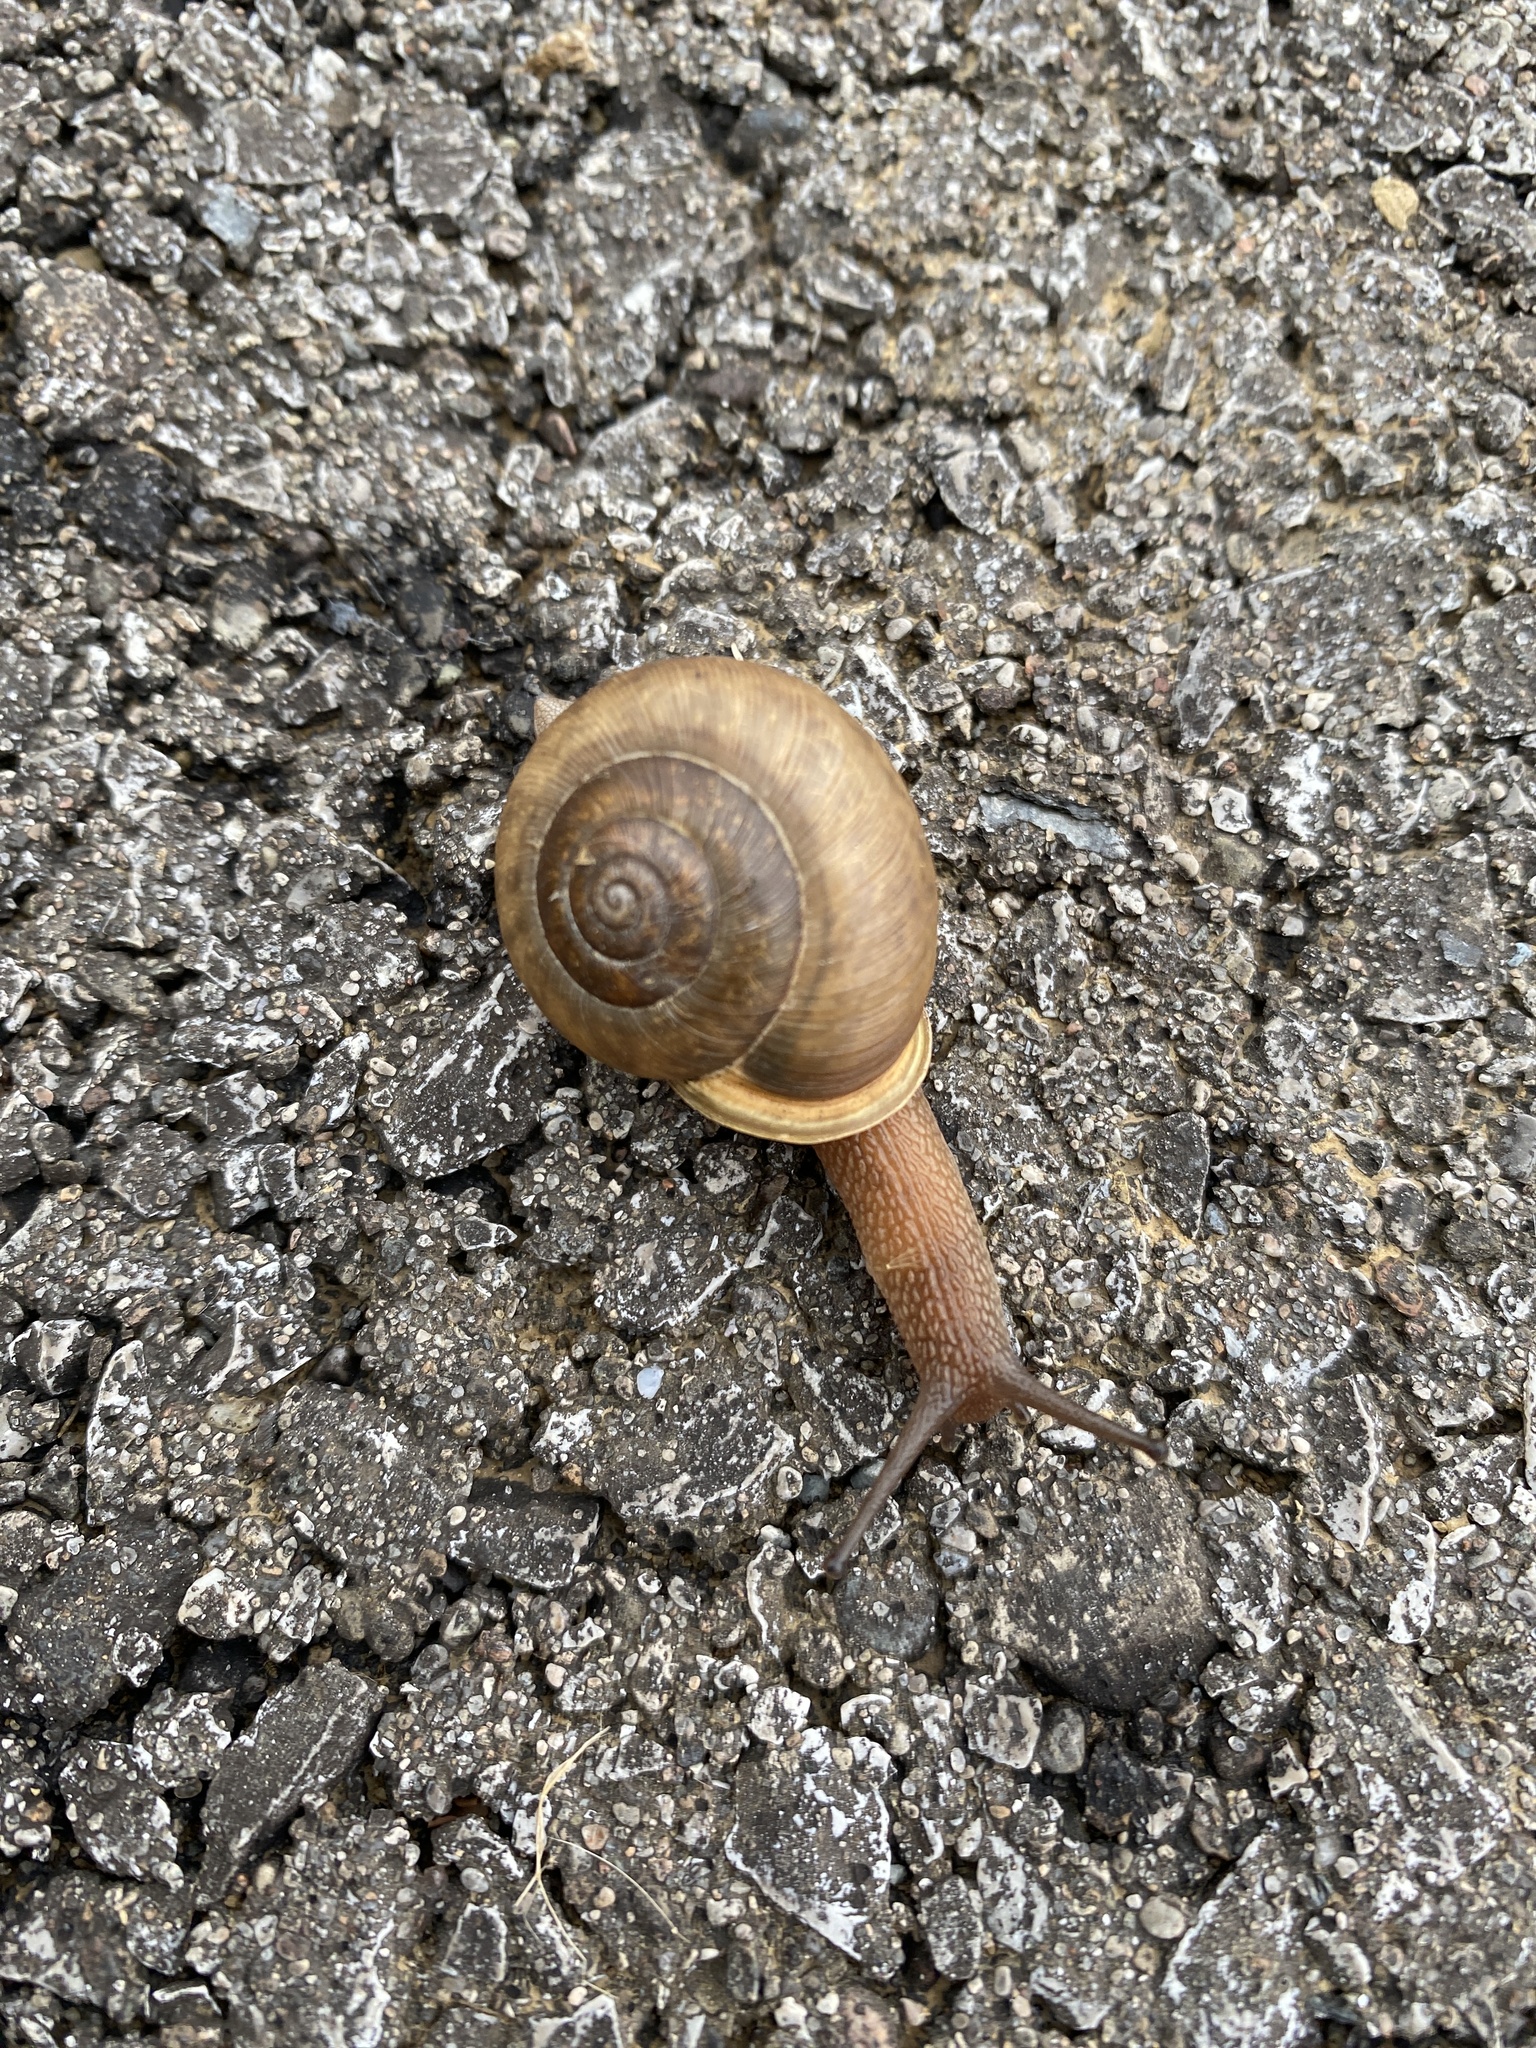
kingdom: Animalia
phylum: Mollusca
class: Gastropoda
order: Stylommatophora
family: Polygyridae
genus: Mesodon
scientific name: Mesodon thyroidus
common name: White-lip globe
